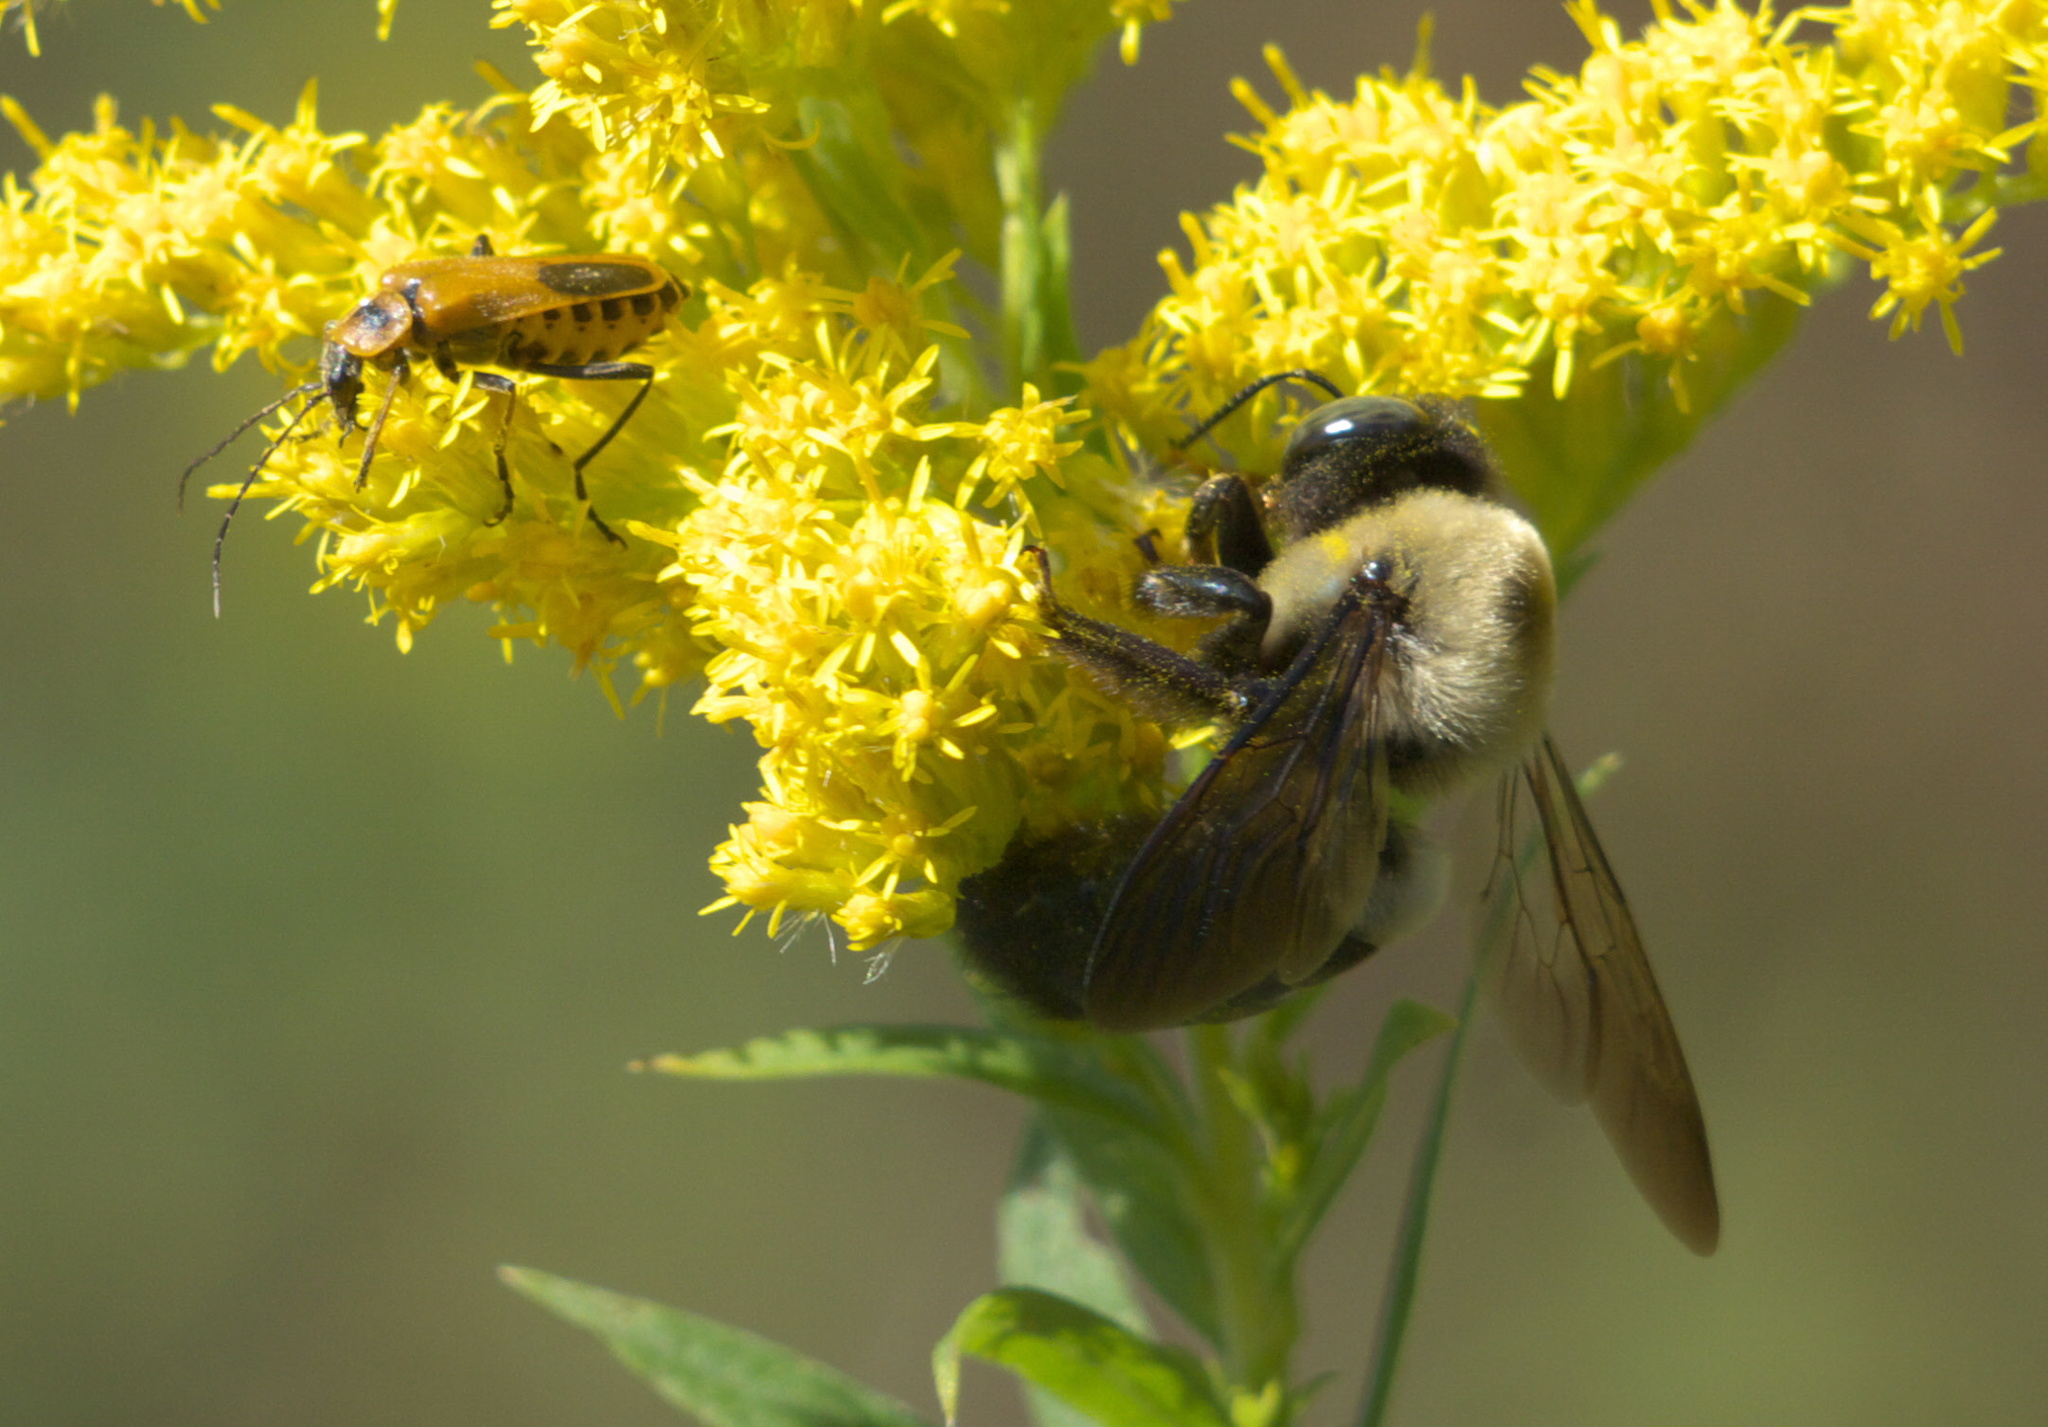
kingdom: Animalia
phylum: Arthropoda
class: Insecta
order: Hymenoptera
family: Apidae
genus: Xylocopa
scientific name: Xylocopa virginica
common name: Carpenter bee
